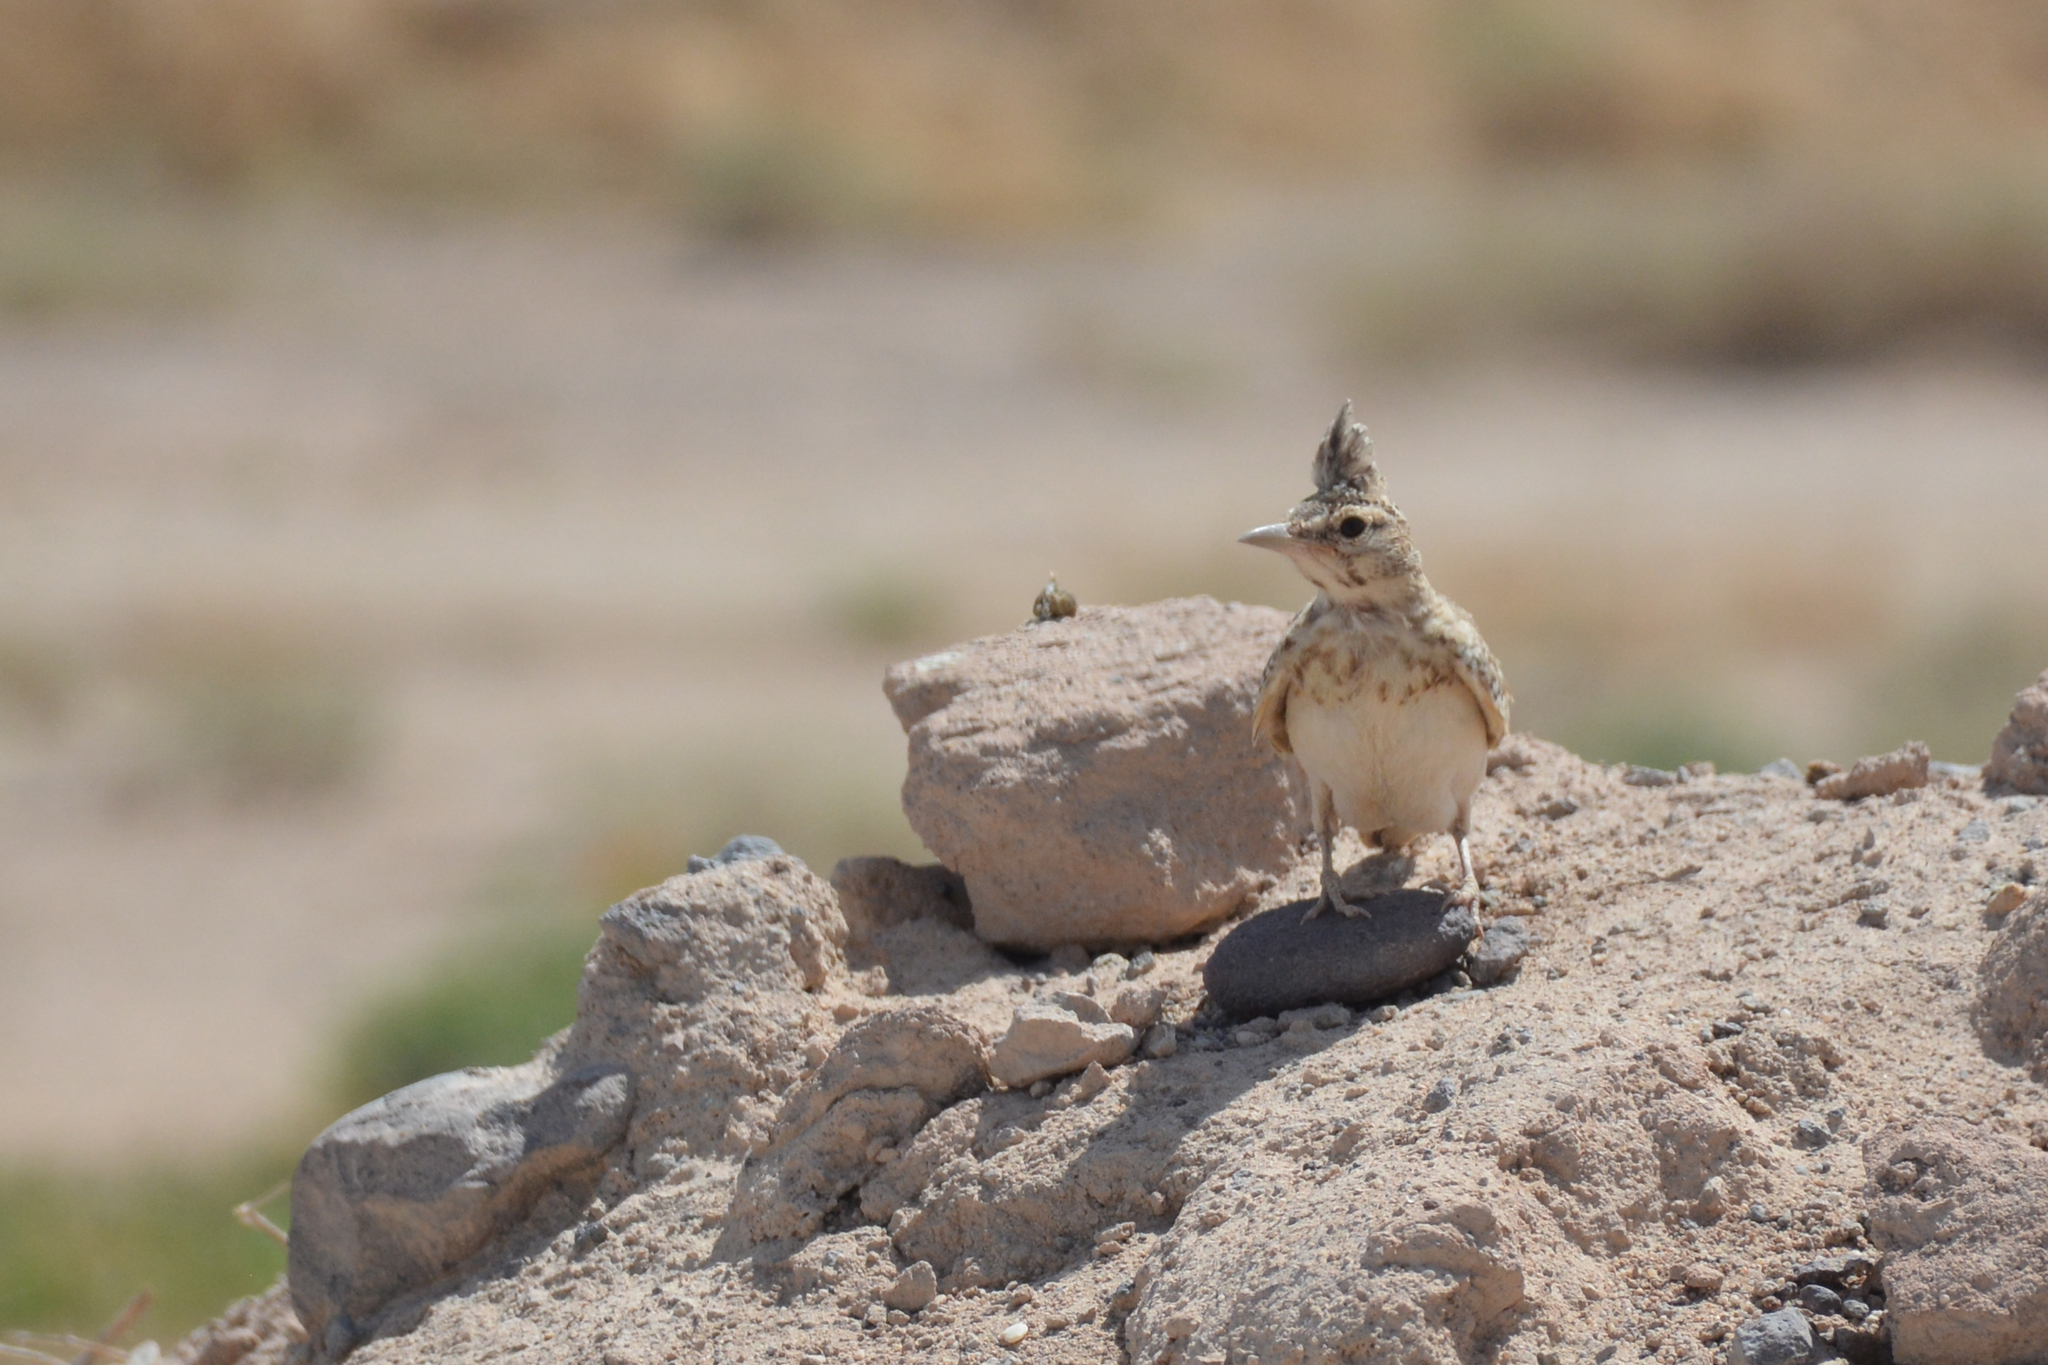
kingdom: Animalia
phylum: Chordata
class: Aves
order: Passeriformes
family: Alaudidae
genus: Galerida
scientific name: Galerida cristata
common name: Crested lark
